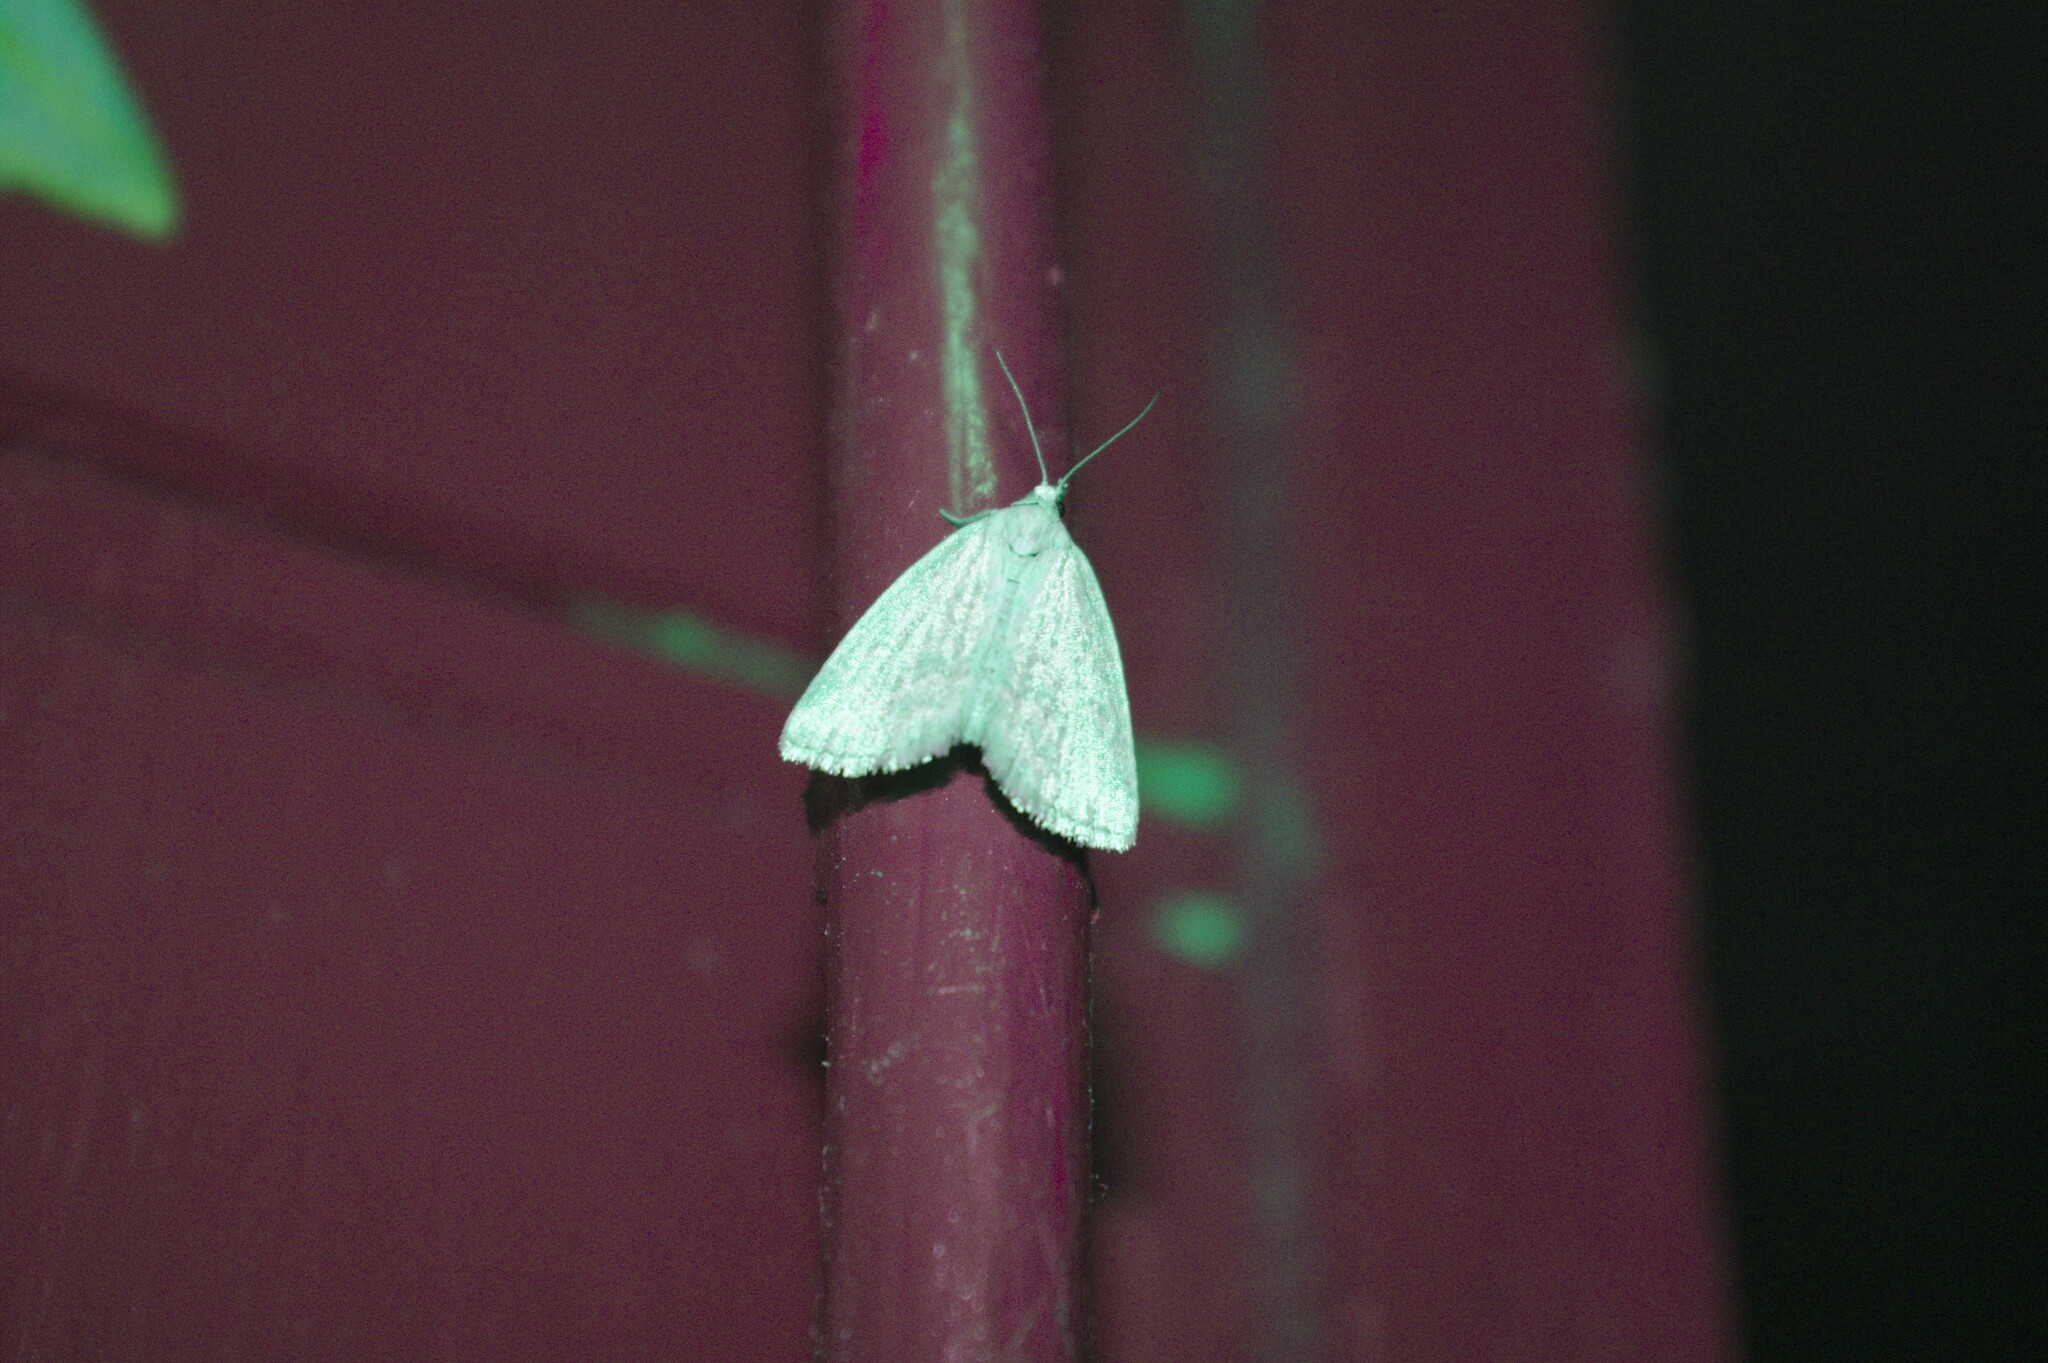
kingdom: Animalia
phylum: Arthropoda
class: Insecta
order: Lepidoptera
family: Noctuidae
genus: Protodeltote
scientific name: Protodeltote albidula
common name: Pale glyph
